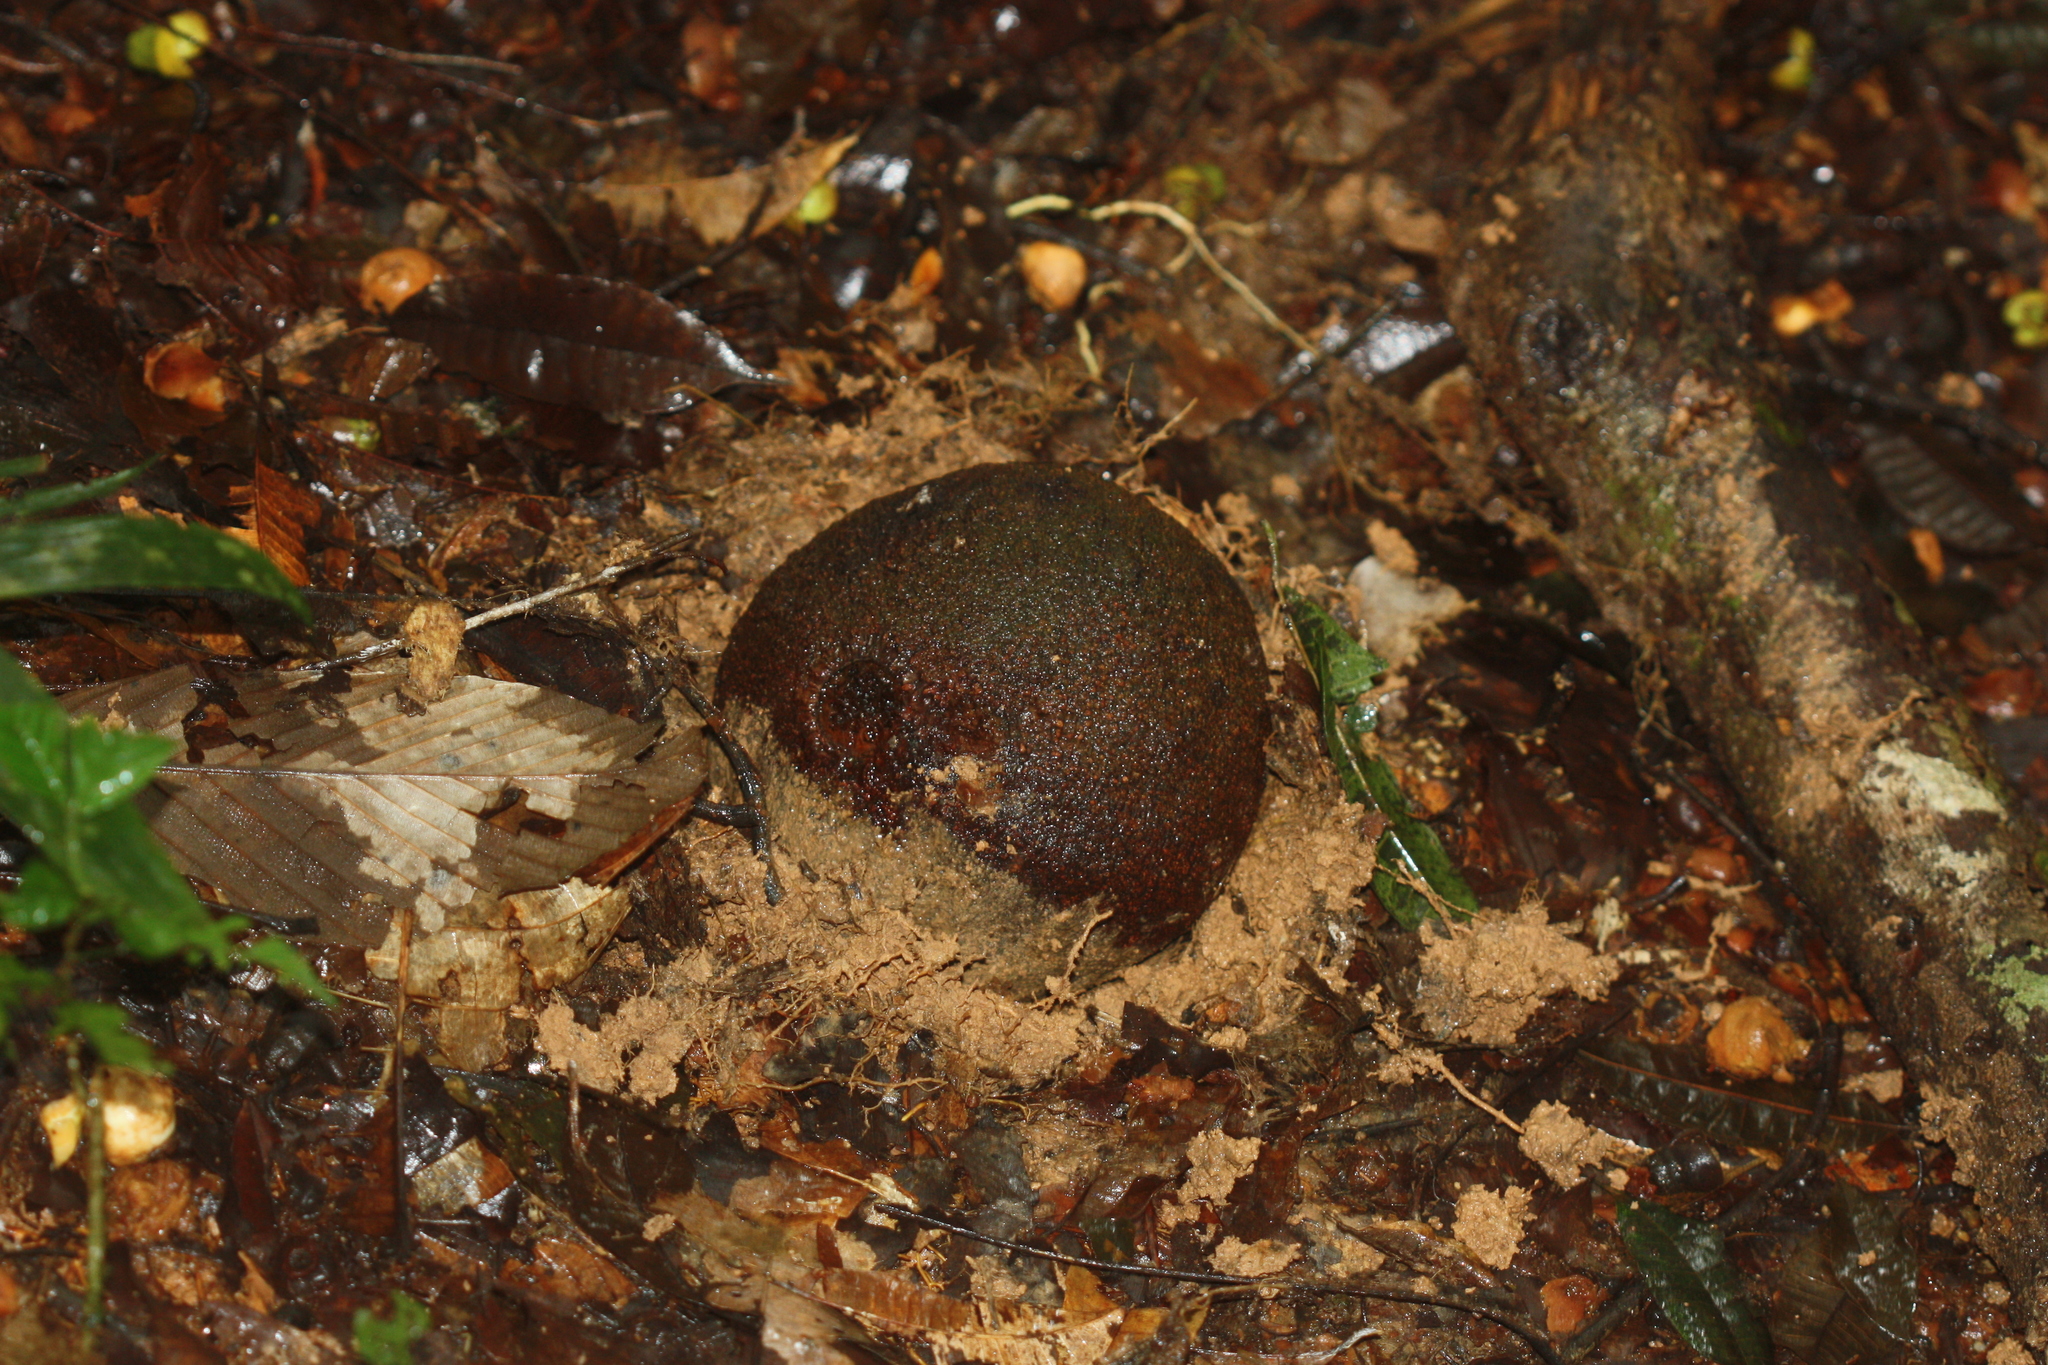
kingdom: Plantae
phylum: Tracheophyta
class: Magnoliopsida
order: Ericales
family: Lecythidaceae
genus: Bertholletia
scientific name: Bertholletia excelsa
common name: Brazil-nut tree
